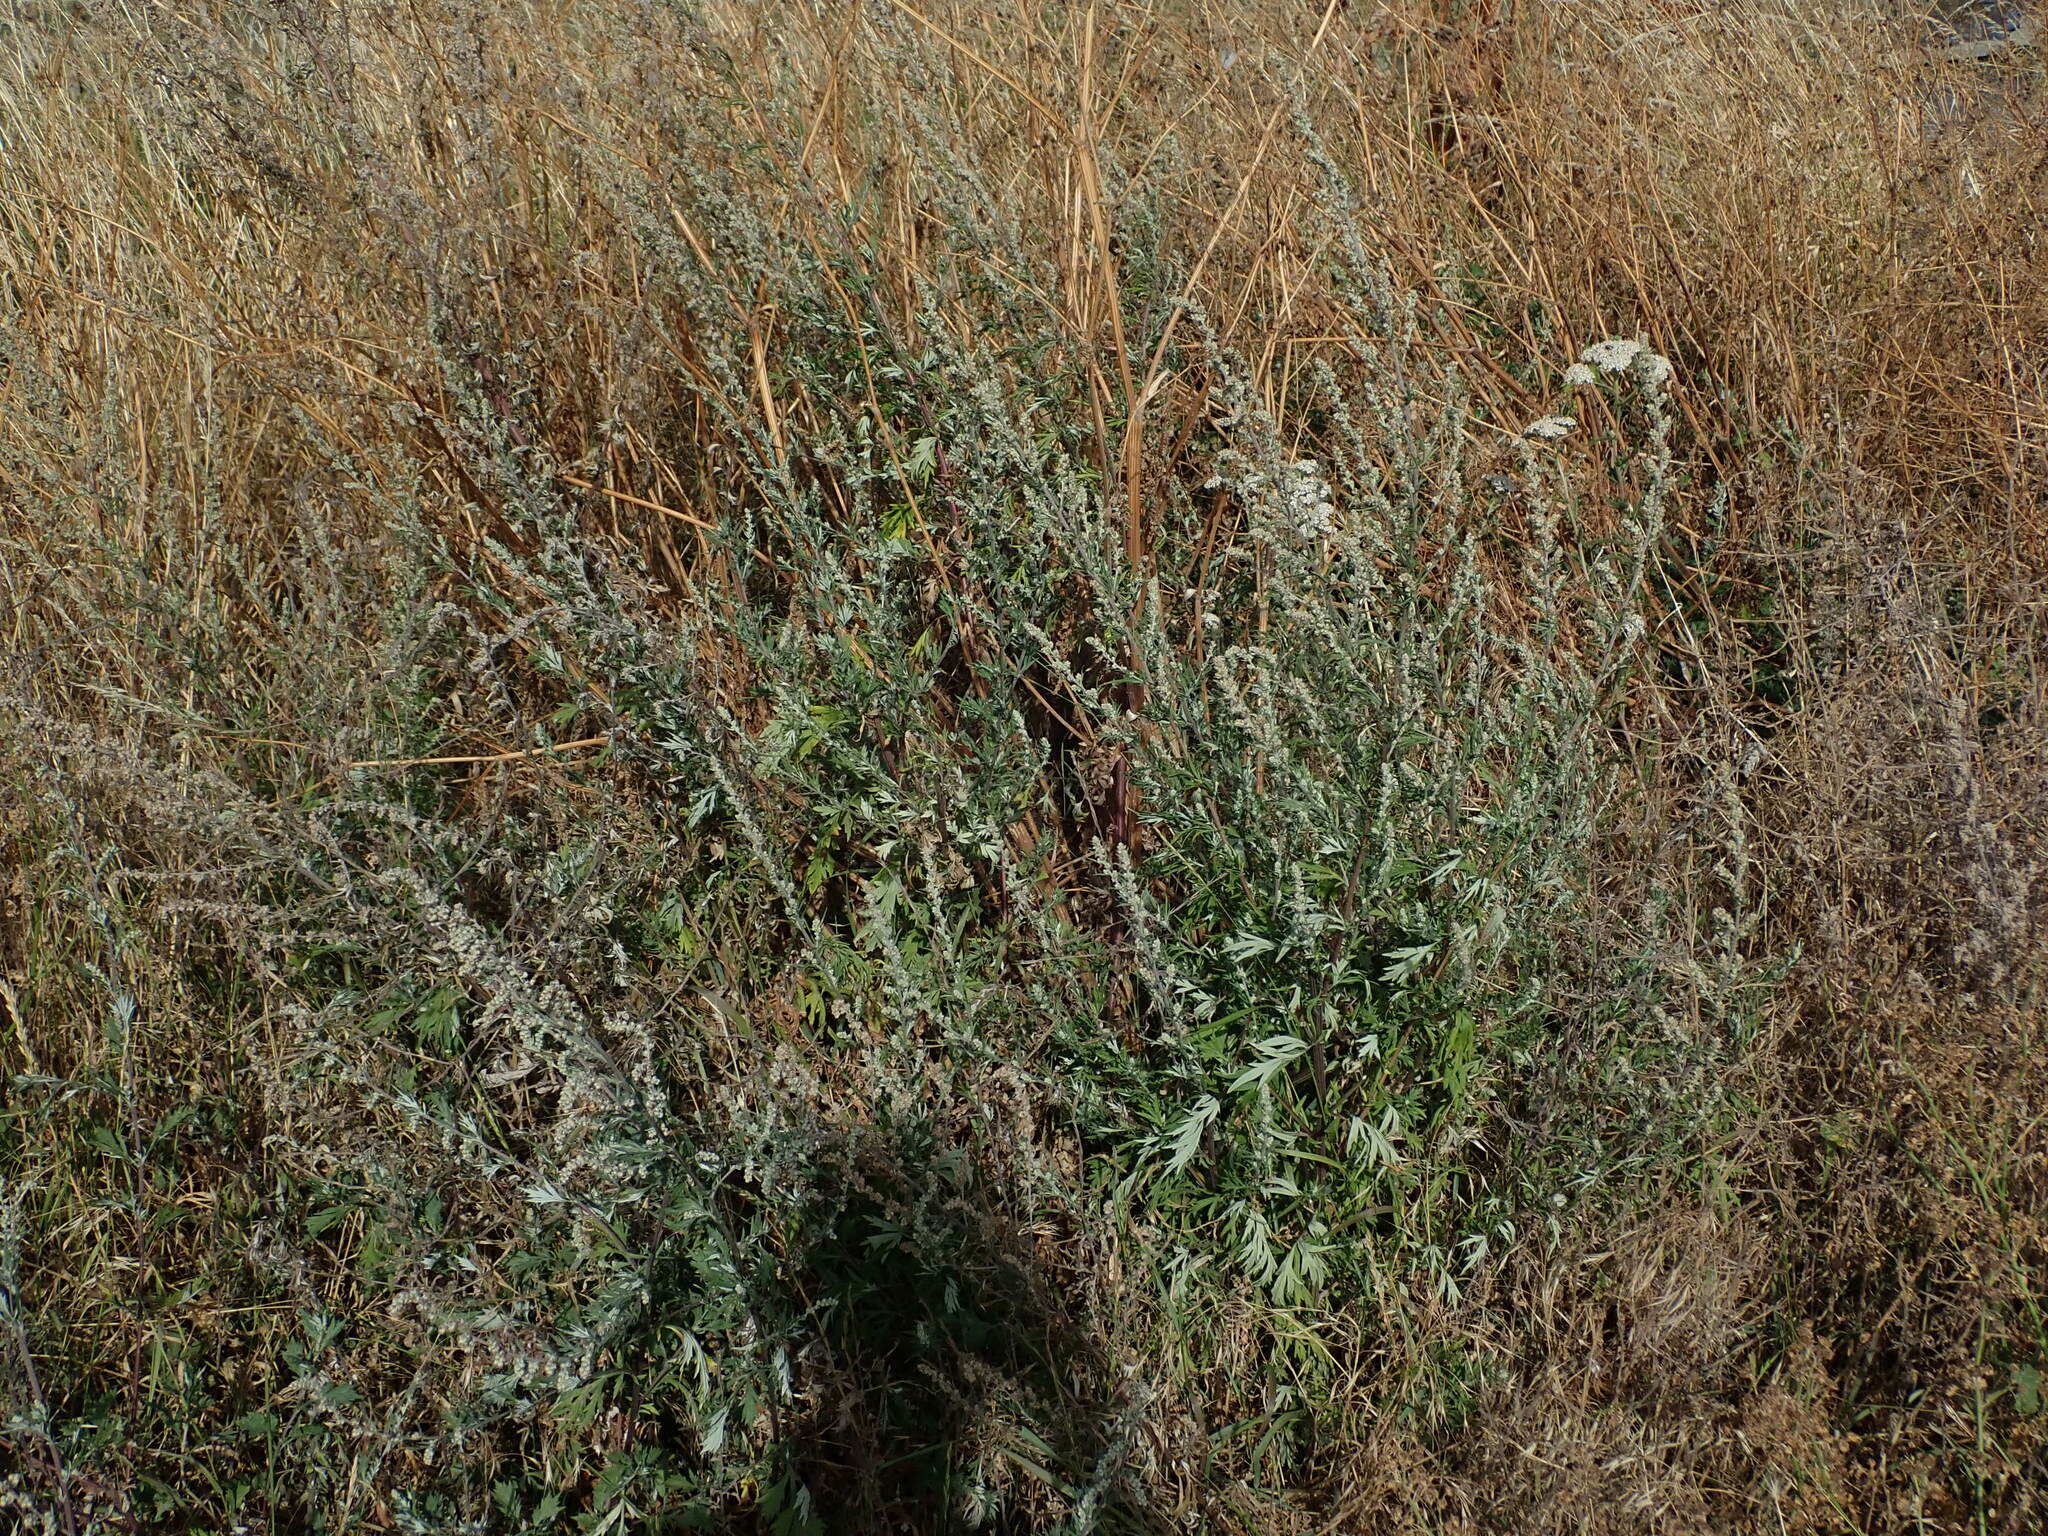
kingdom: Plantae
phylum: Tracheophyta
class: Magnoliopsida
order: Asterales
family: Asteraceae
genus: Artemisia
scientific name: Artemisia vulgaris
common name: Mugwort
